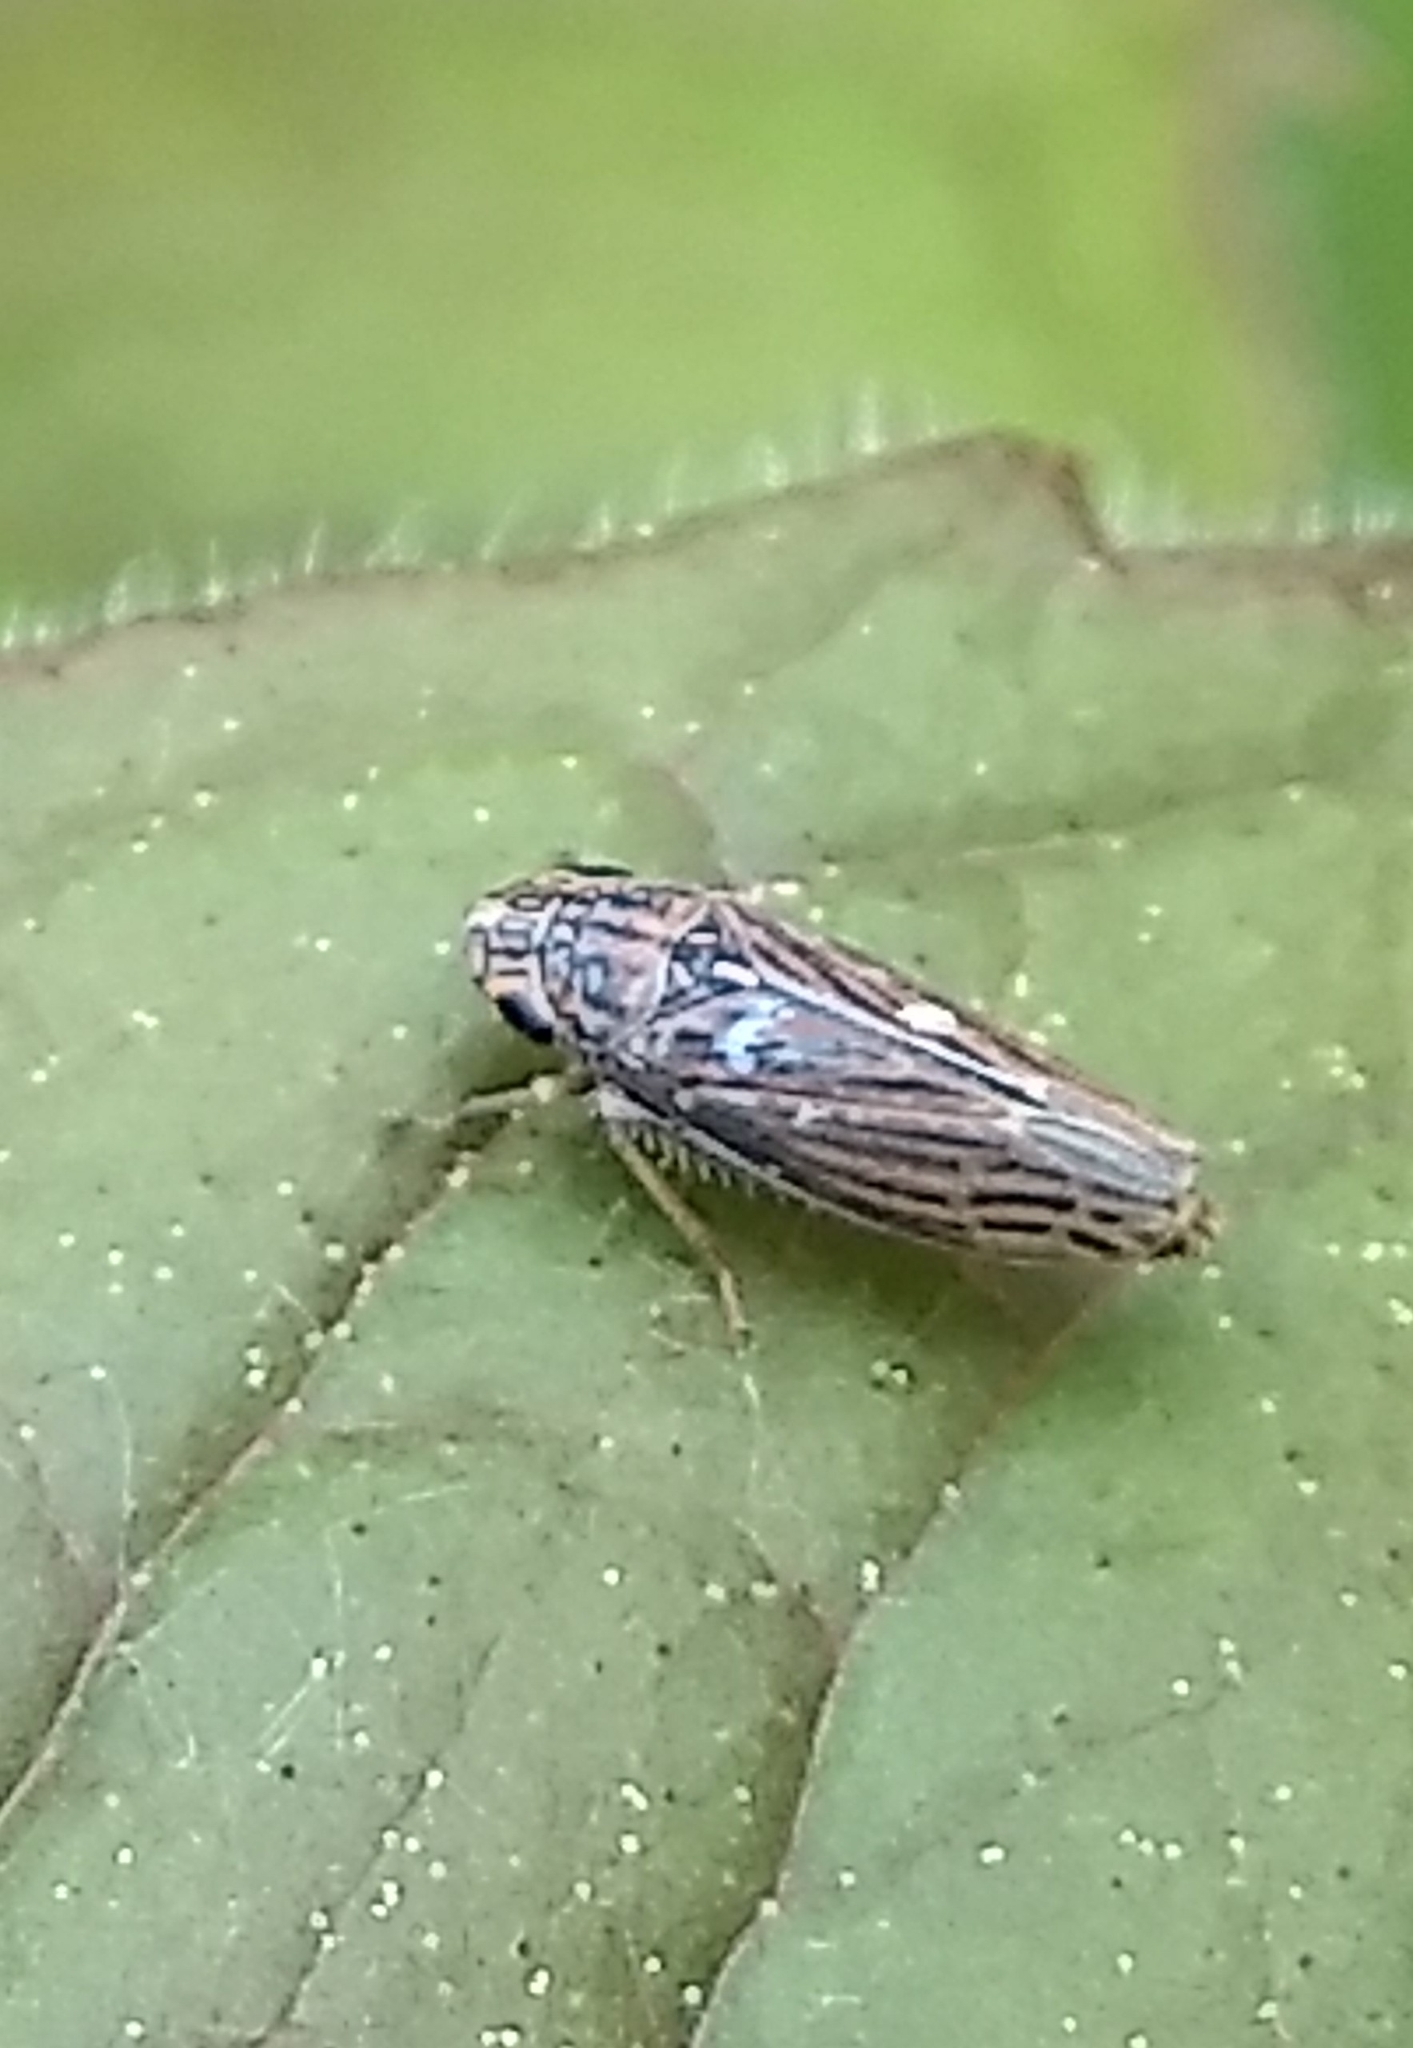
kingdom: Animalia
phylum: Arthropoda
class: Insecta
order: Hemiptera
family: Cicadellidae
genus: Neokolla
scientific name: Neokolla hieroglyphica
